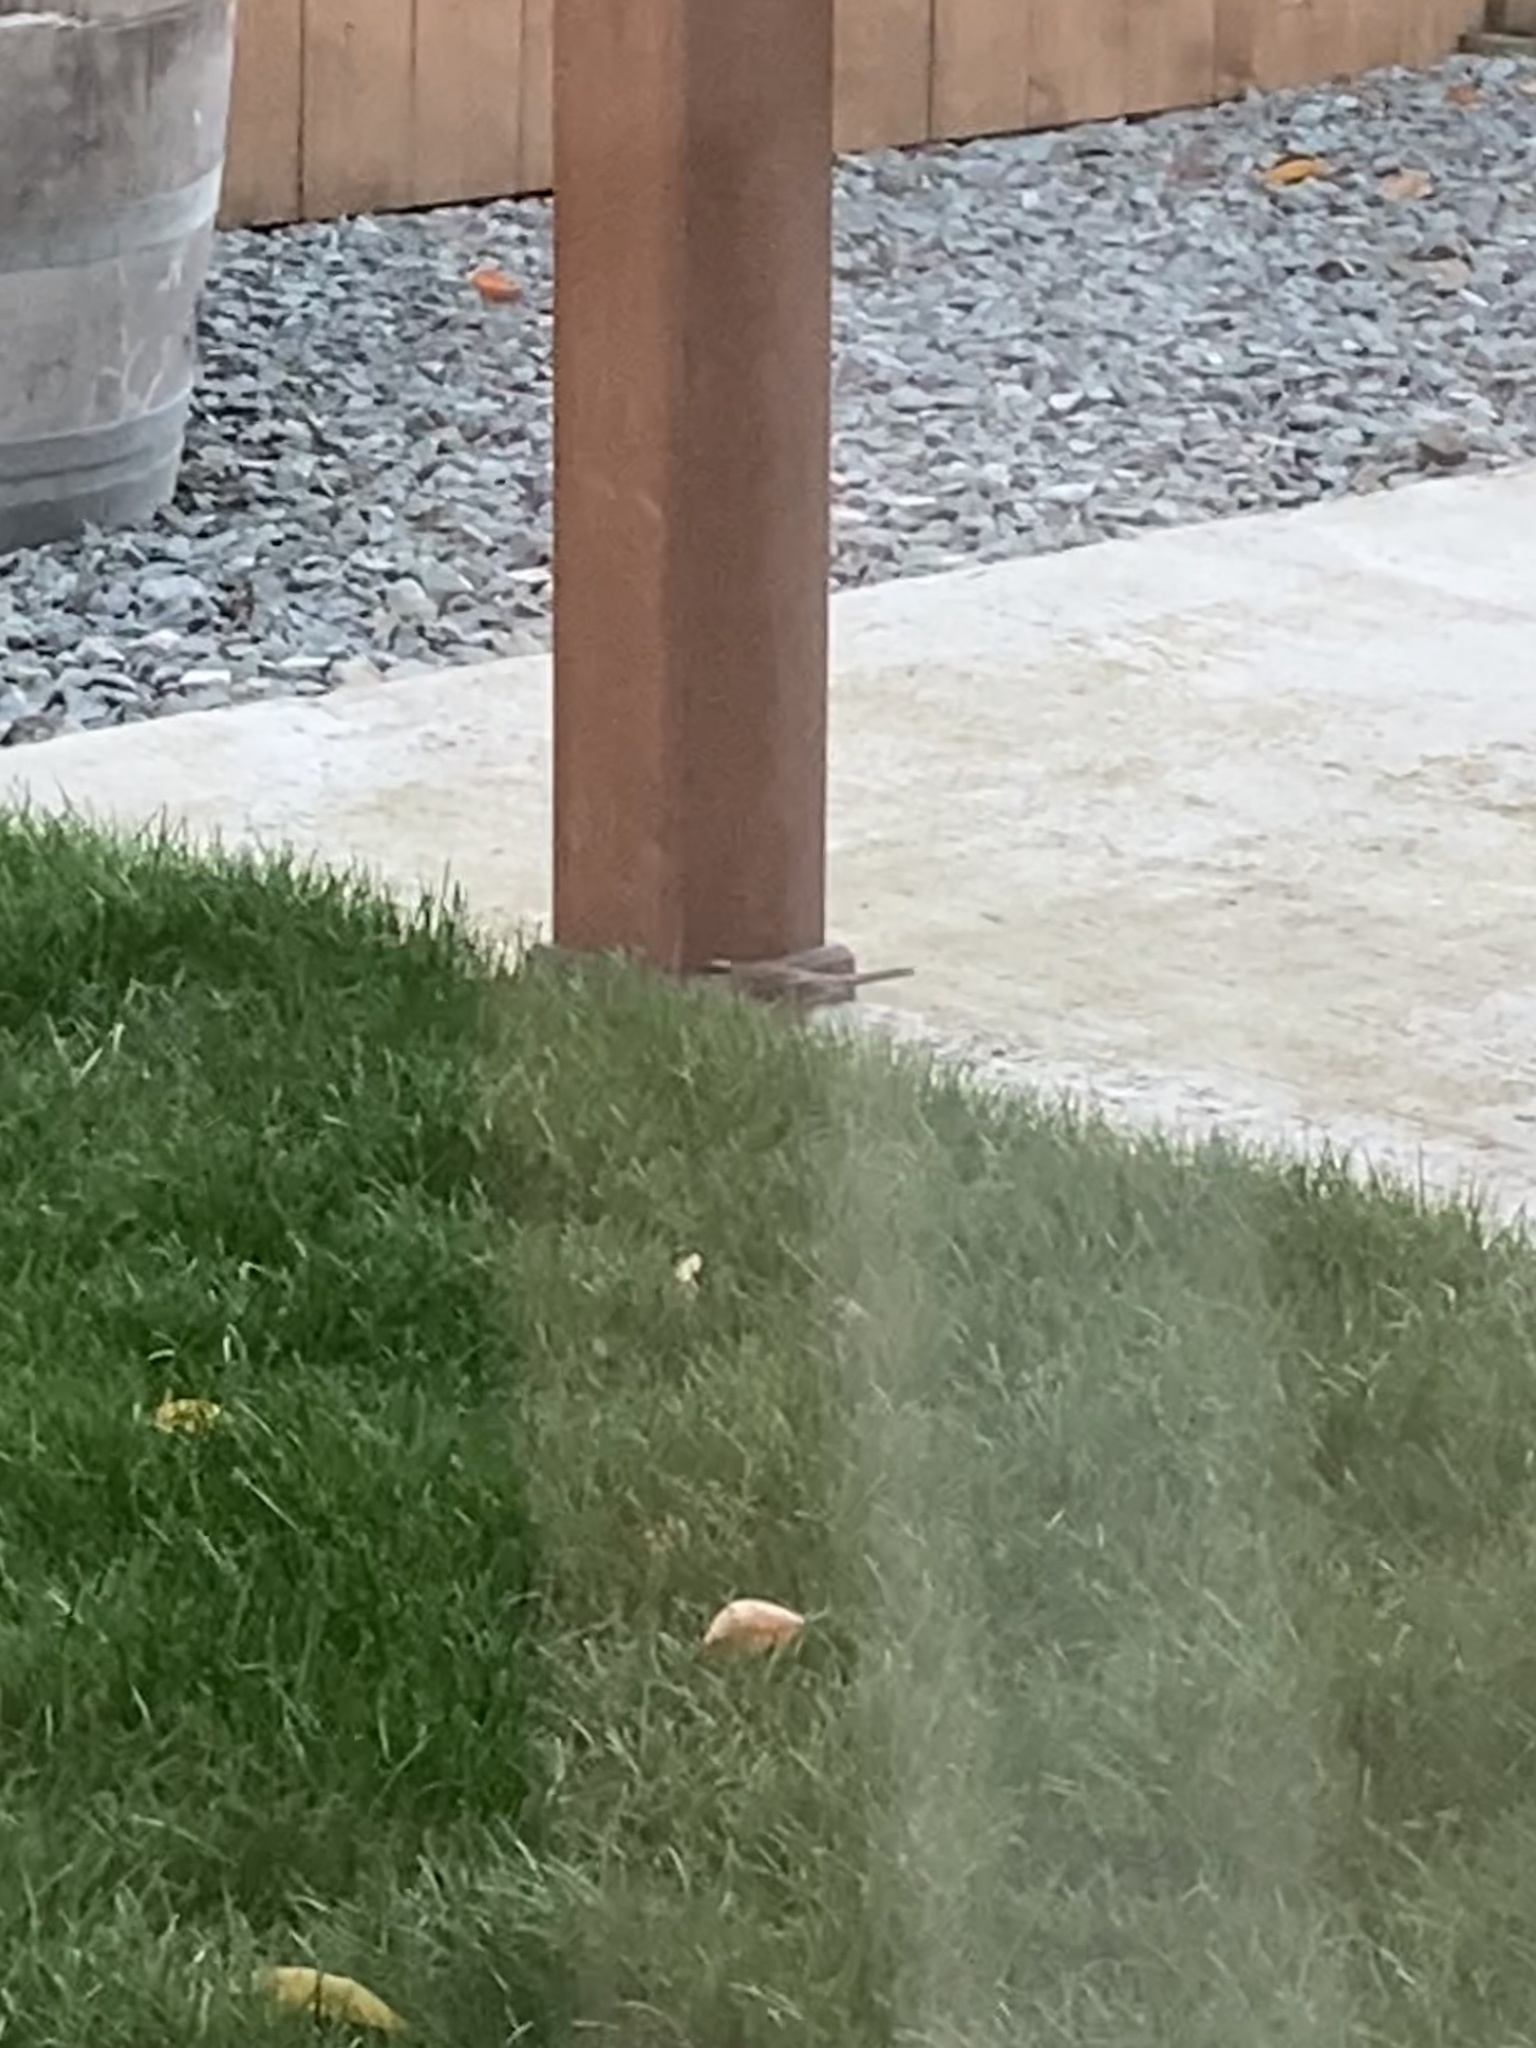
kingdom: Animalia
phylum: Chordata
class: Aves
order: Passeriformes
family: Passerellidae
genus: Zonotrichia
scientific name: Zonotrichia atricapilla
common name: Golden-crowned sparrow
